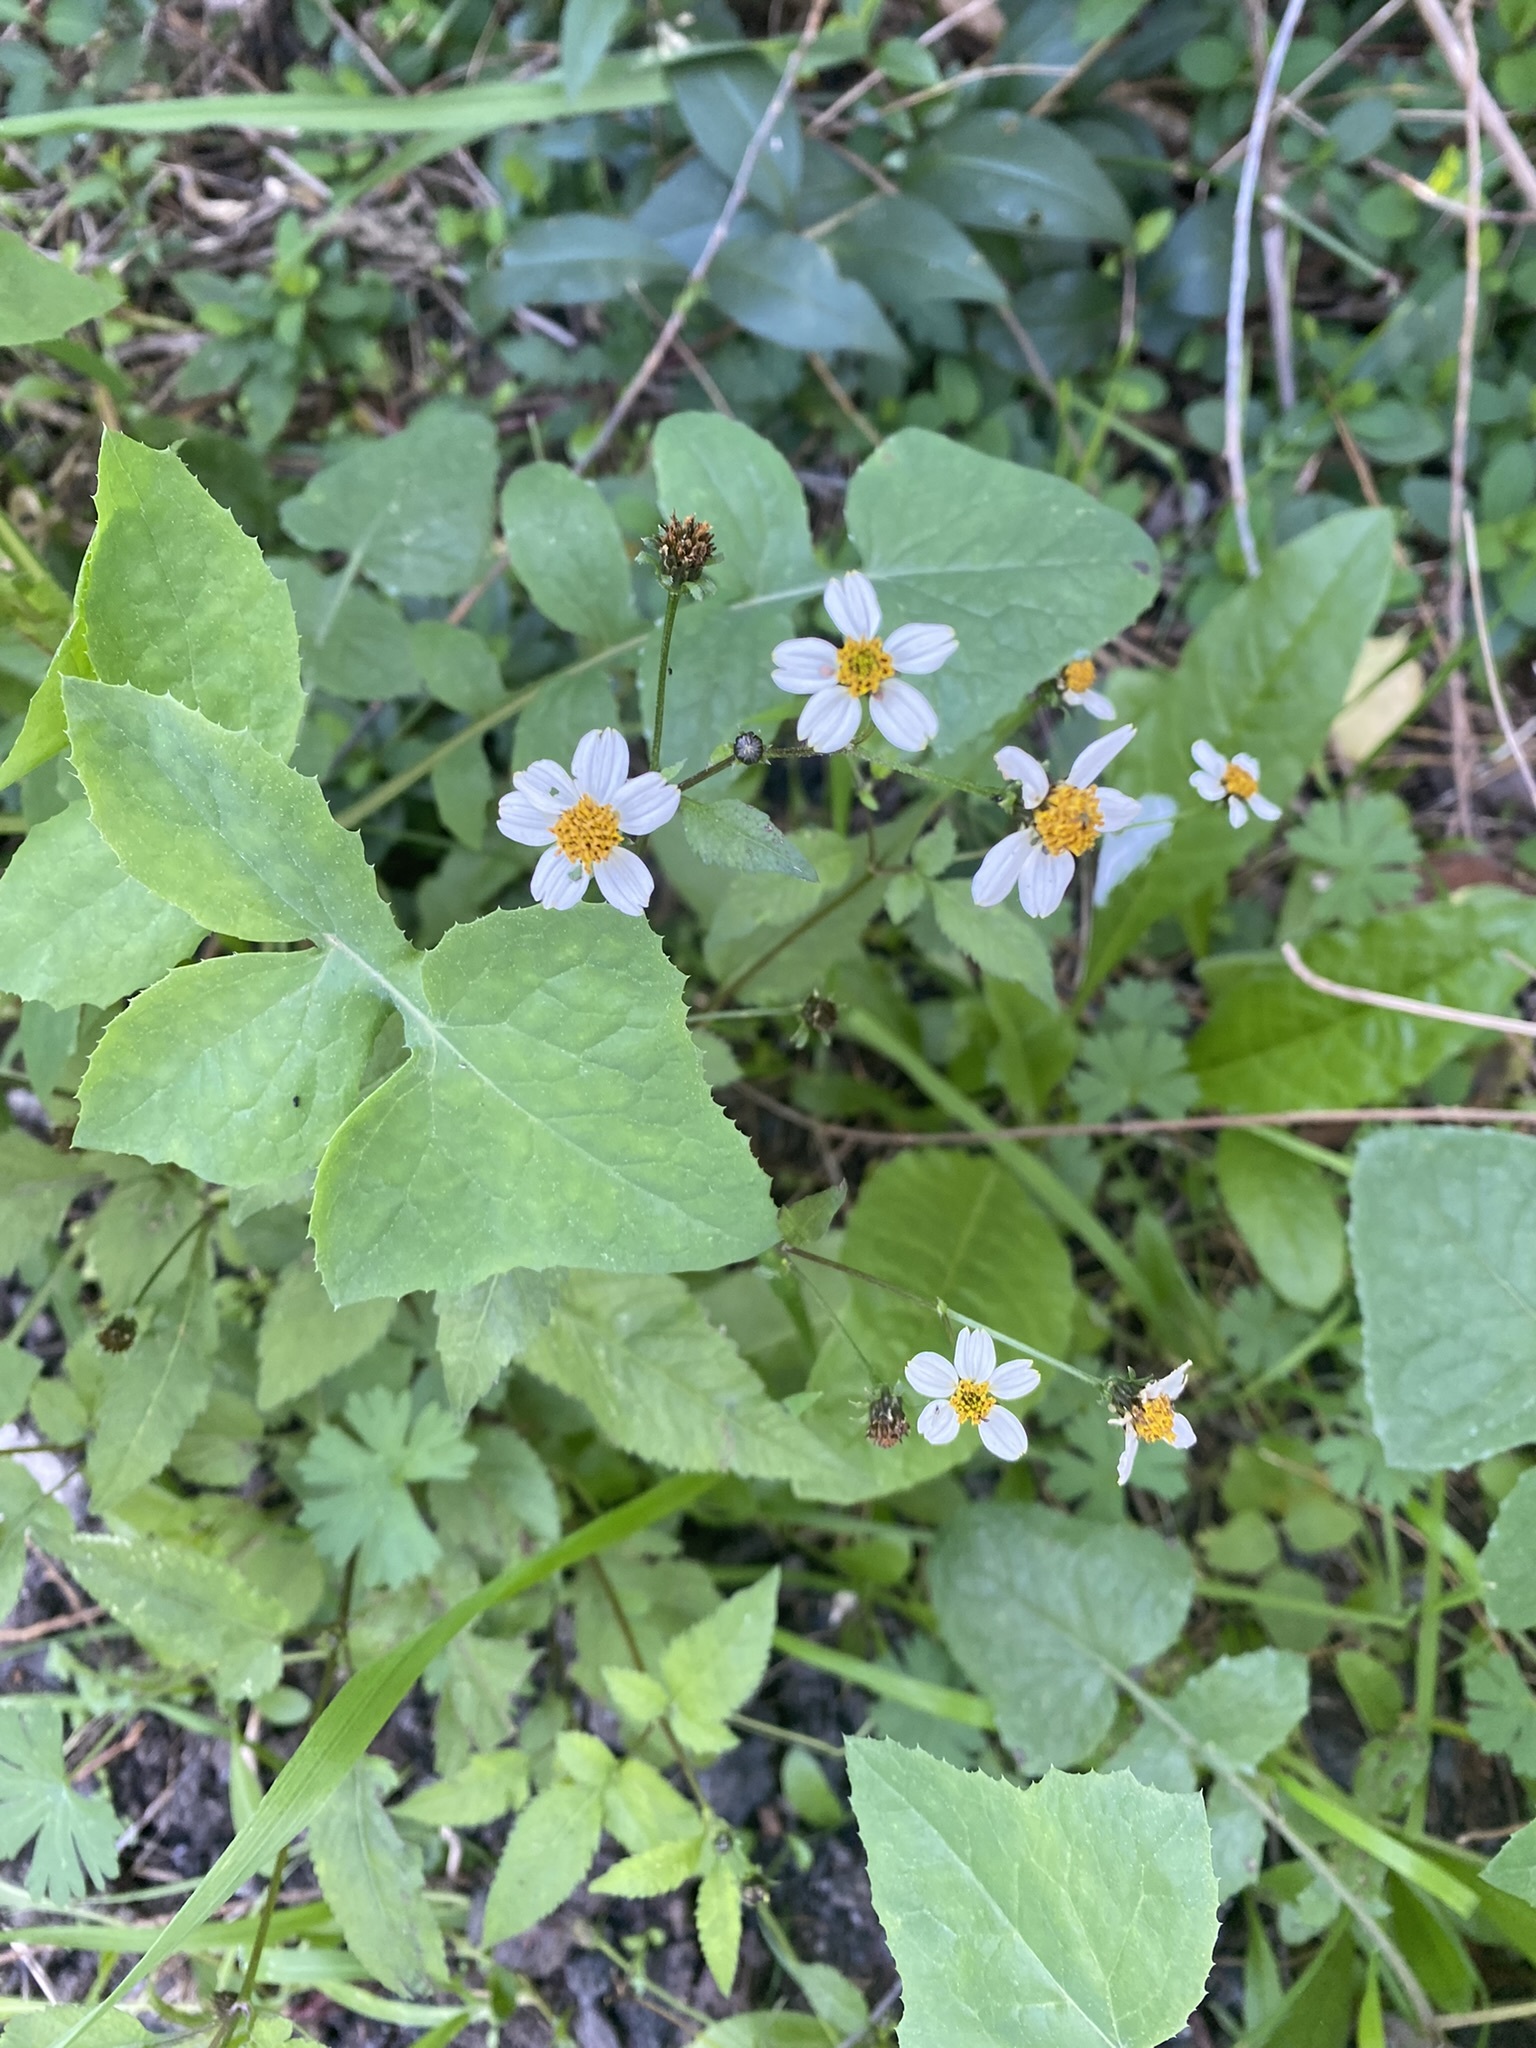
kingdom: Plantae
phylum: Tracheophyta
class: Magnoliopsida
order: Asterales
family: Asteraceae
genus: Bidens
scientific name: Bidens pilosa
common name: Black-jack
